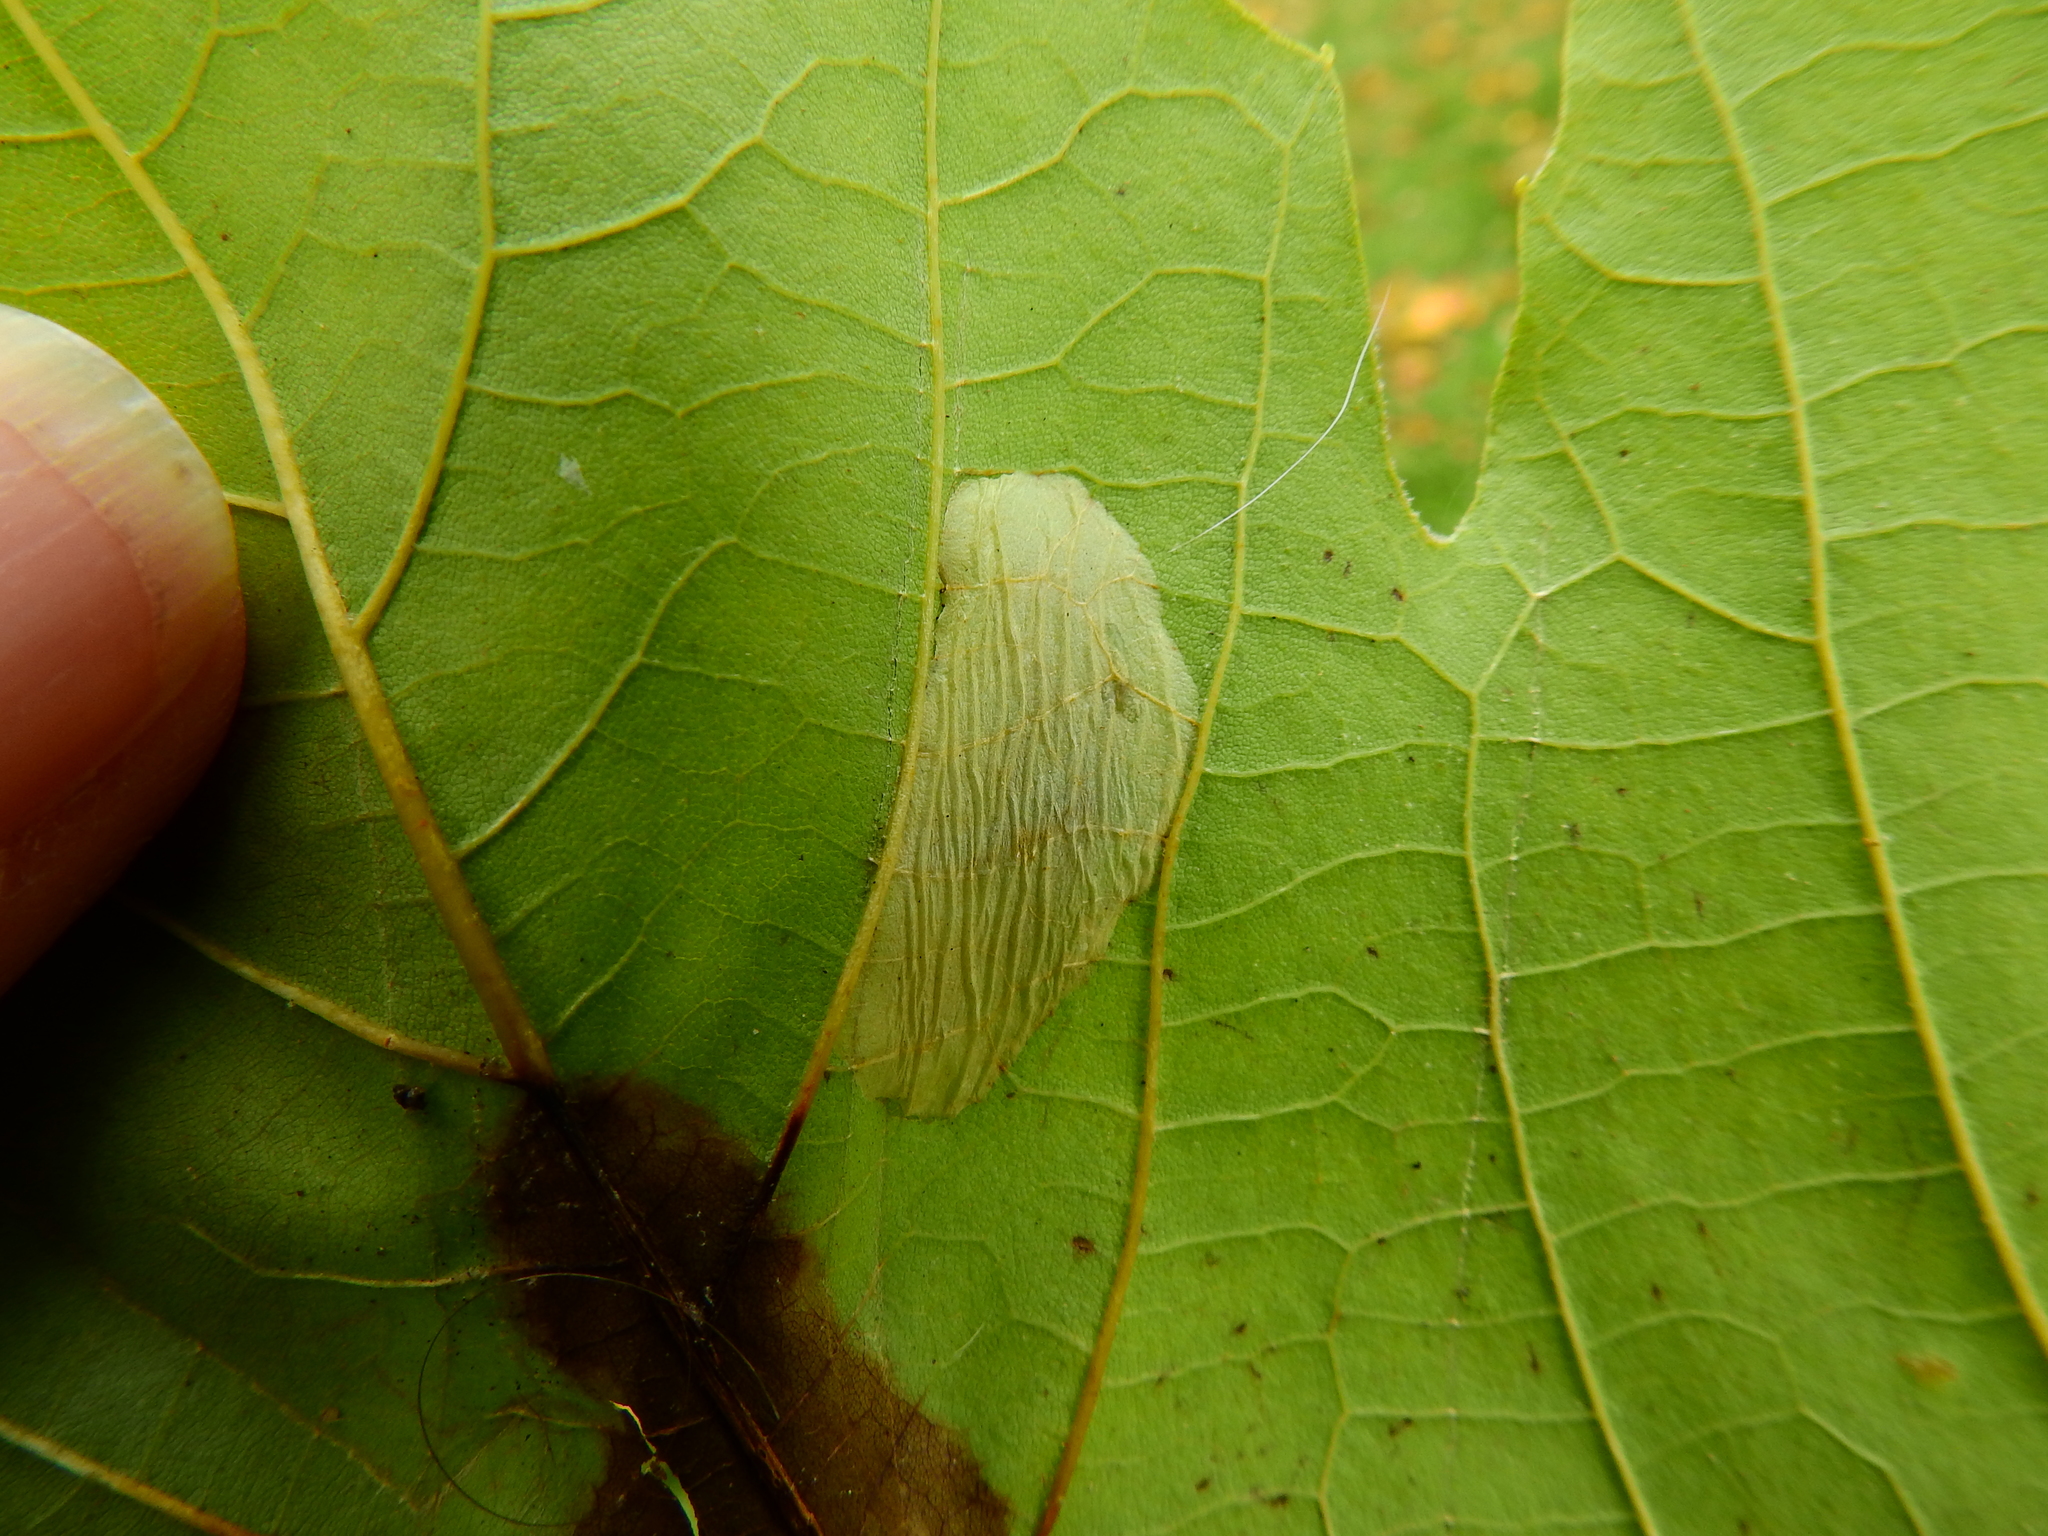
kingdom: Animalia
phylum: Arthropoda
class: Insecta
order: Lepidoptera
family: Gracillariidae
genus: Phyllonorycter
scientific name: Phyllonorycter platani
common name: London midget
